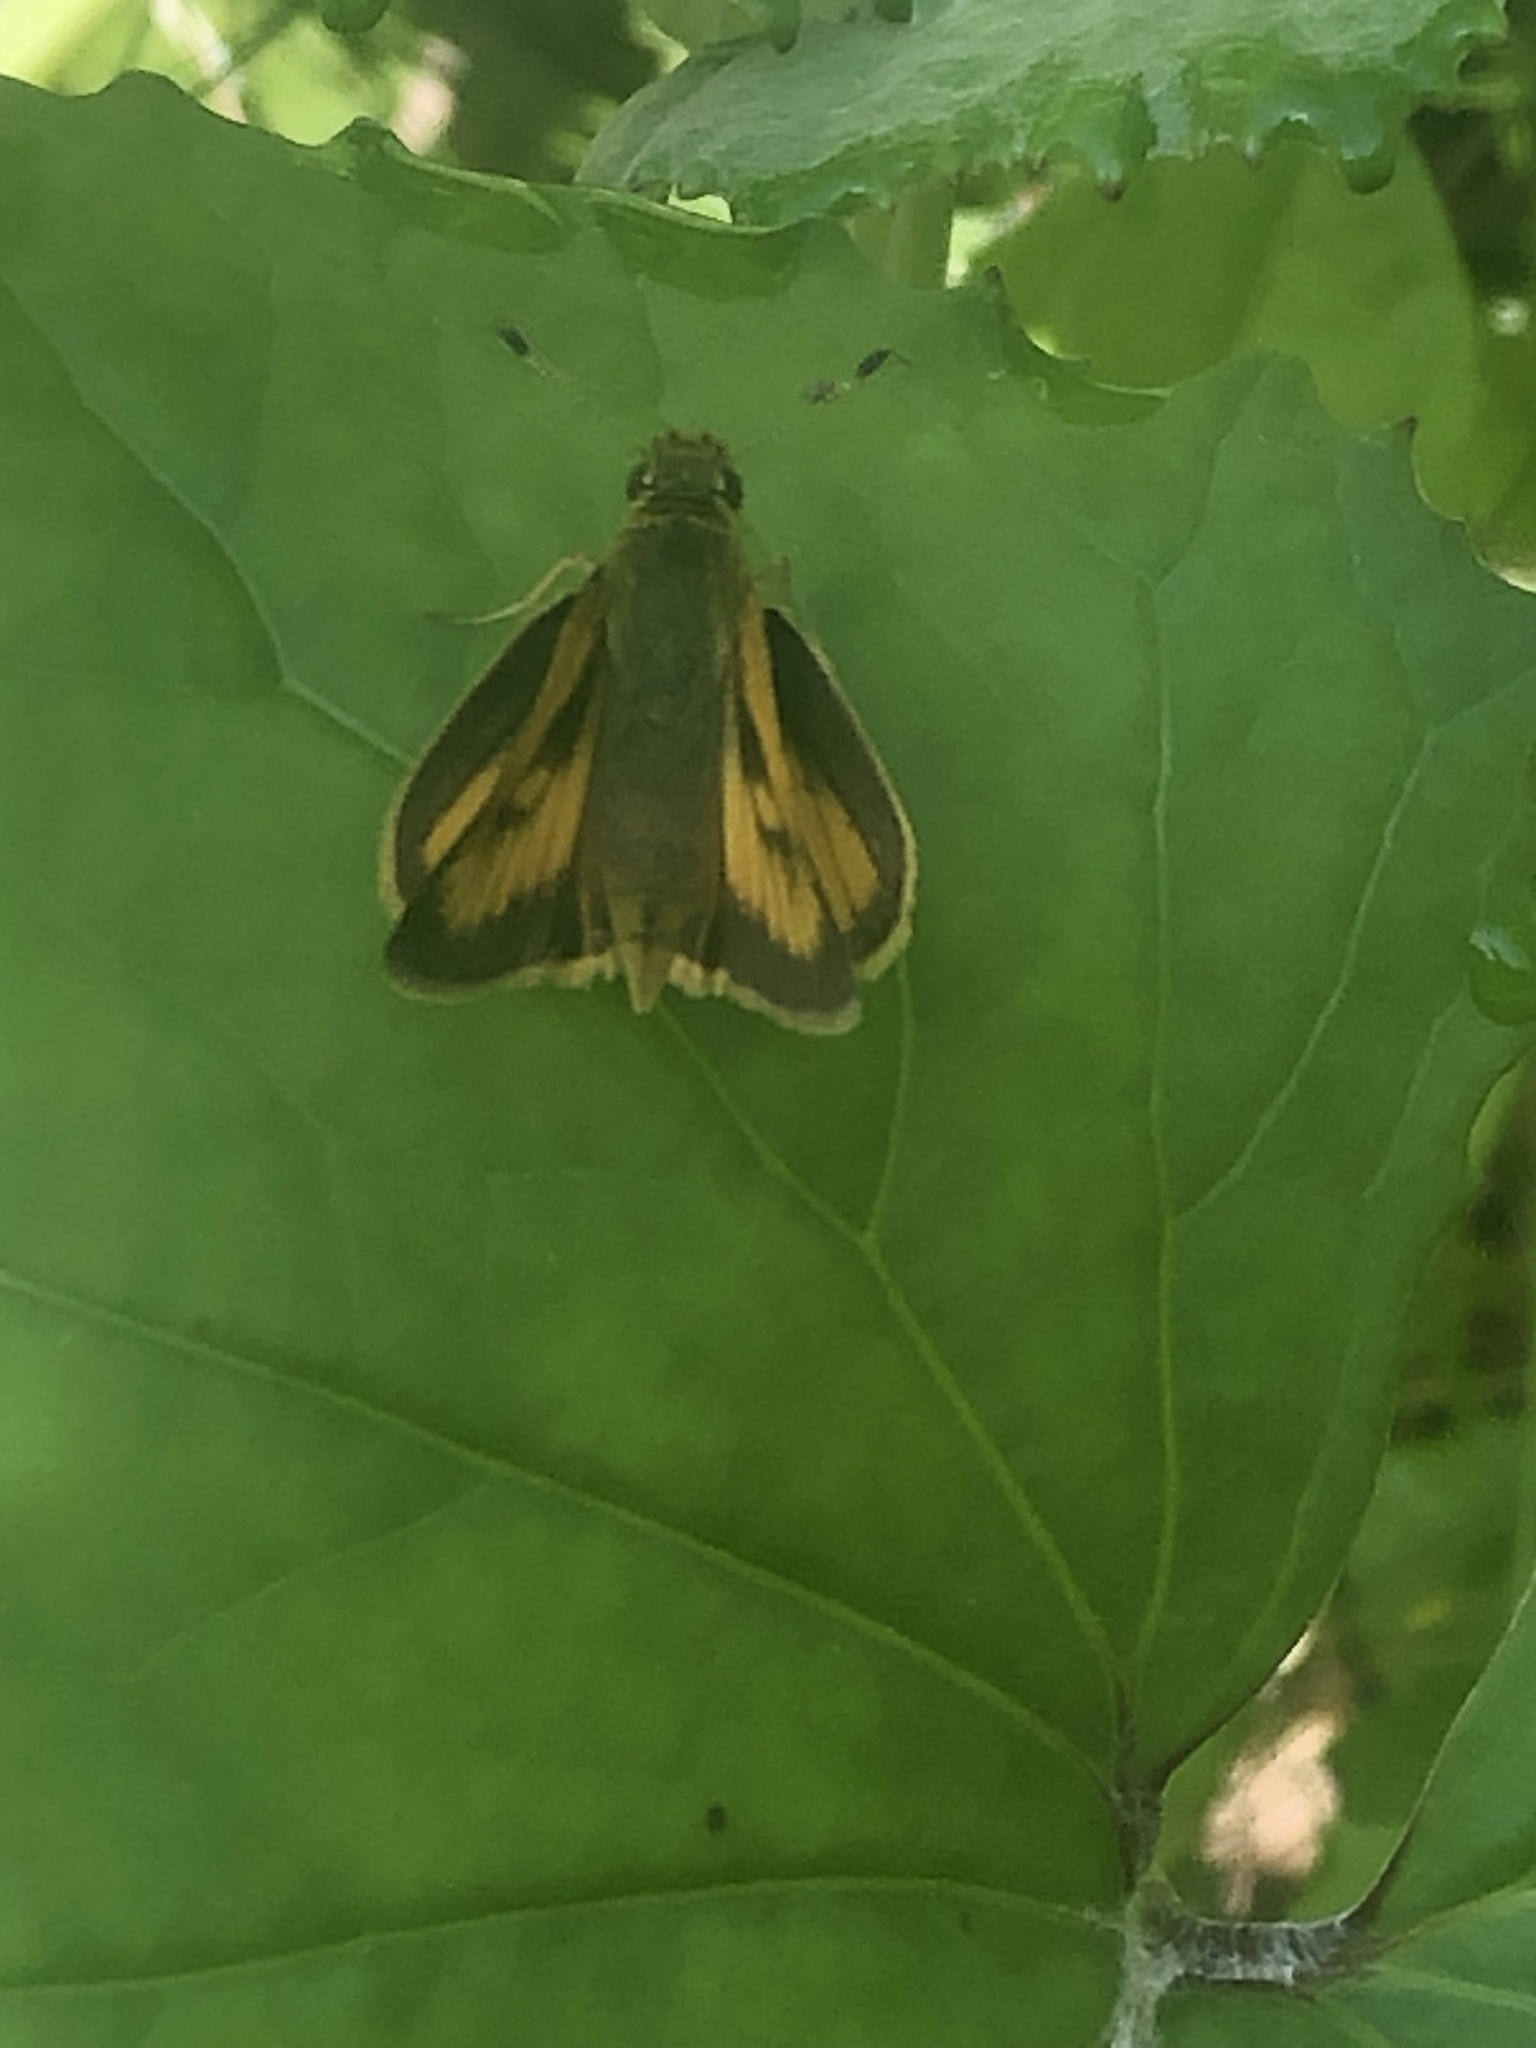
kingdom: Animalia
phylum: Arthropoda
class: Insecta
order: Lepidoptera
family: Hesperiidae
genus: Atrytone
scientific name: Atrytone delaware
